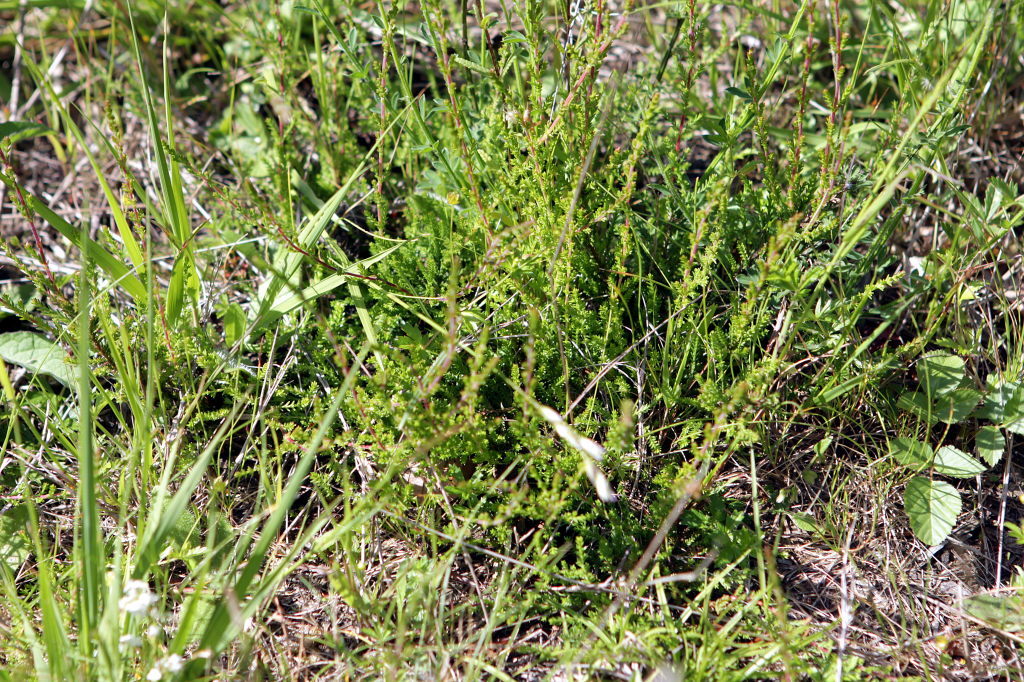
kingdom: Plantae
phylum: Tracheophyta
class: Magnoliopsida
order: Ericales
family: Ericaceae
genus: Calluna
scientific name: Calluna vulgaris
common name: Heather
